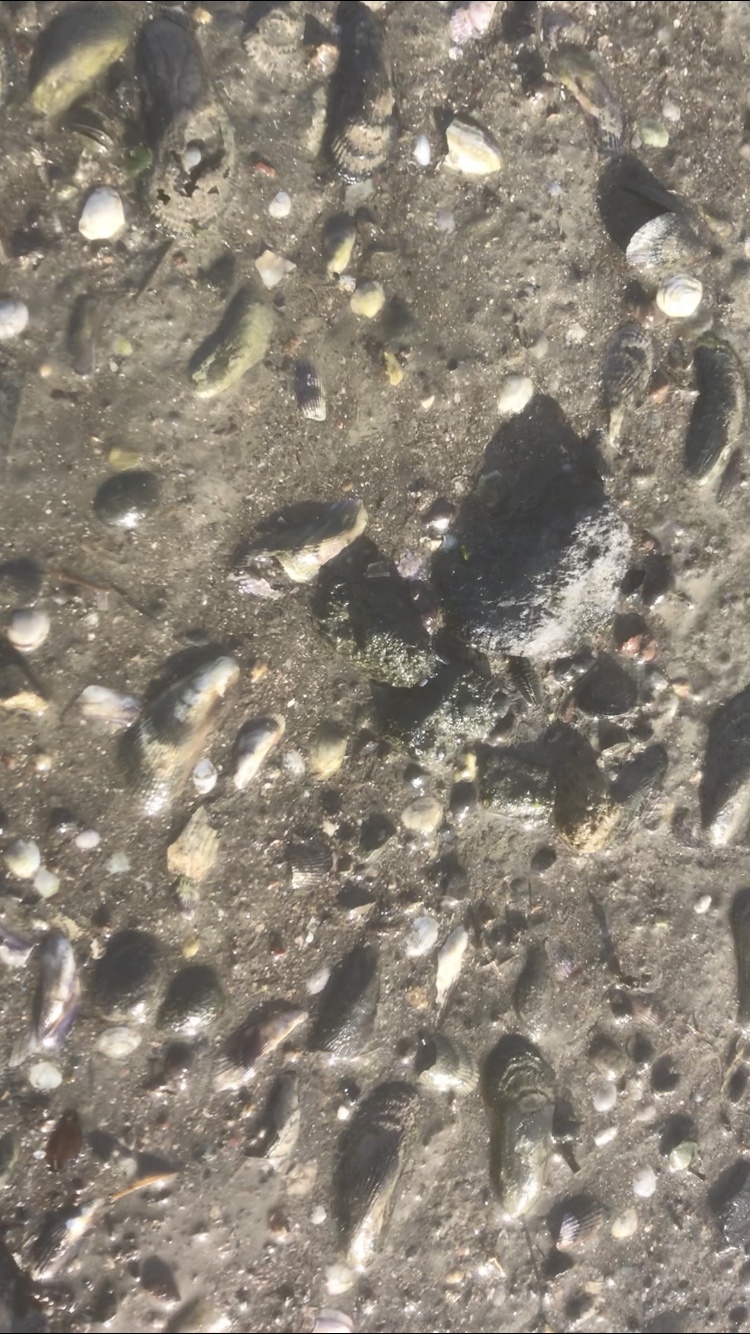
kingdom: Animalia
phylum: Mollusca
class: Bivalvia
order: Mytilida
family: Mytilidae
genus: Geukensia
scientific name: Geukensia demissa
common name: Ribbed mussel
